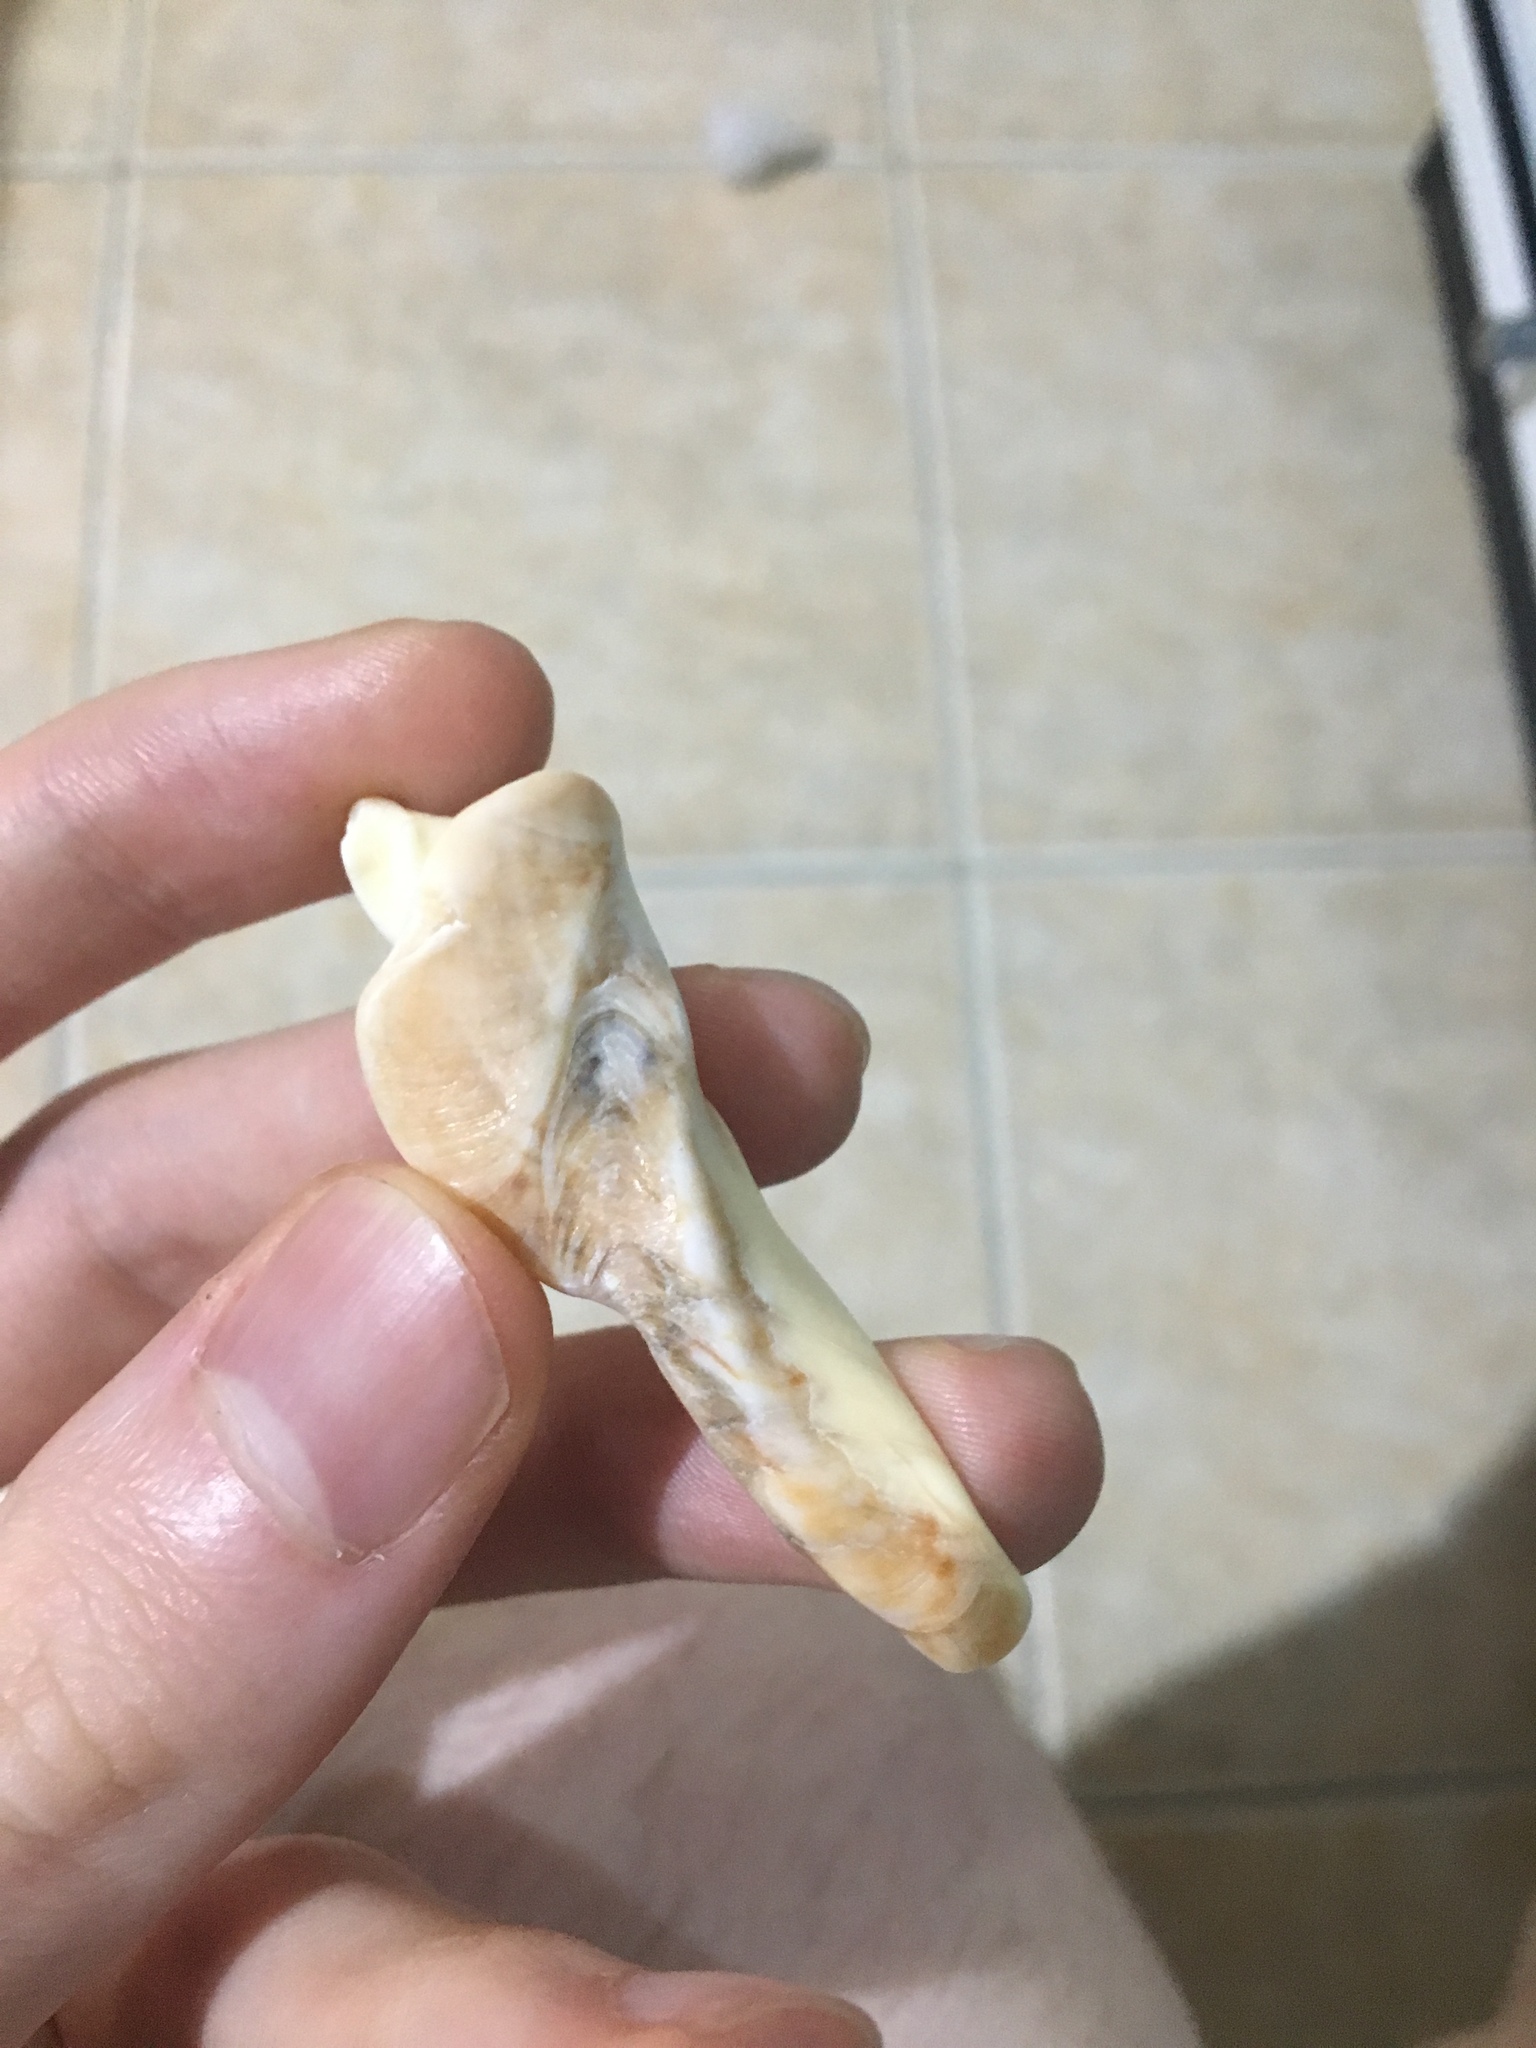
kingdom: Animalia
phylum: Mollusca
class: Gastropoda
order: Neogastropoda
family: Volutidae
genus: Cymbiola
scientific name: Cymbiola magnifica
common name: Magnificent volute
